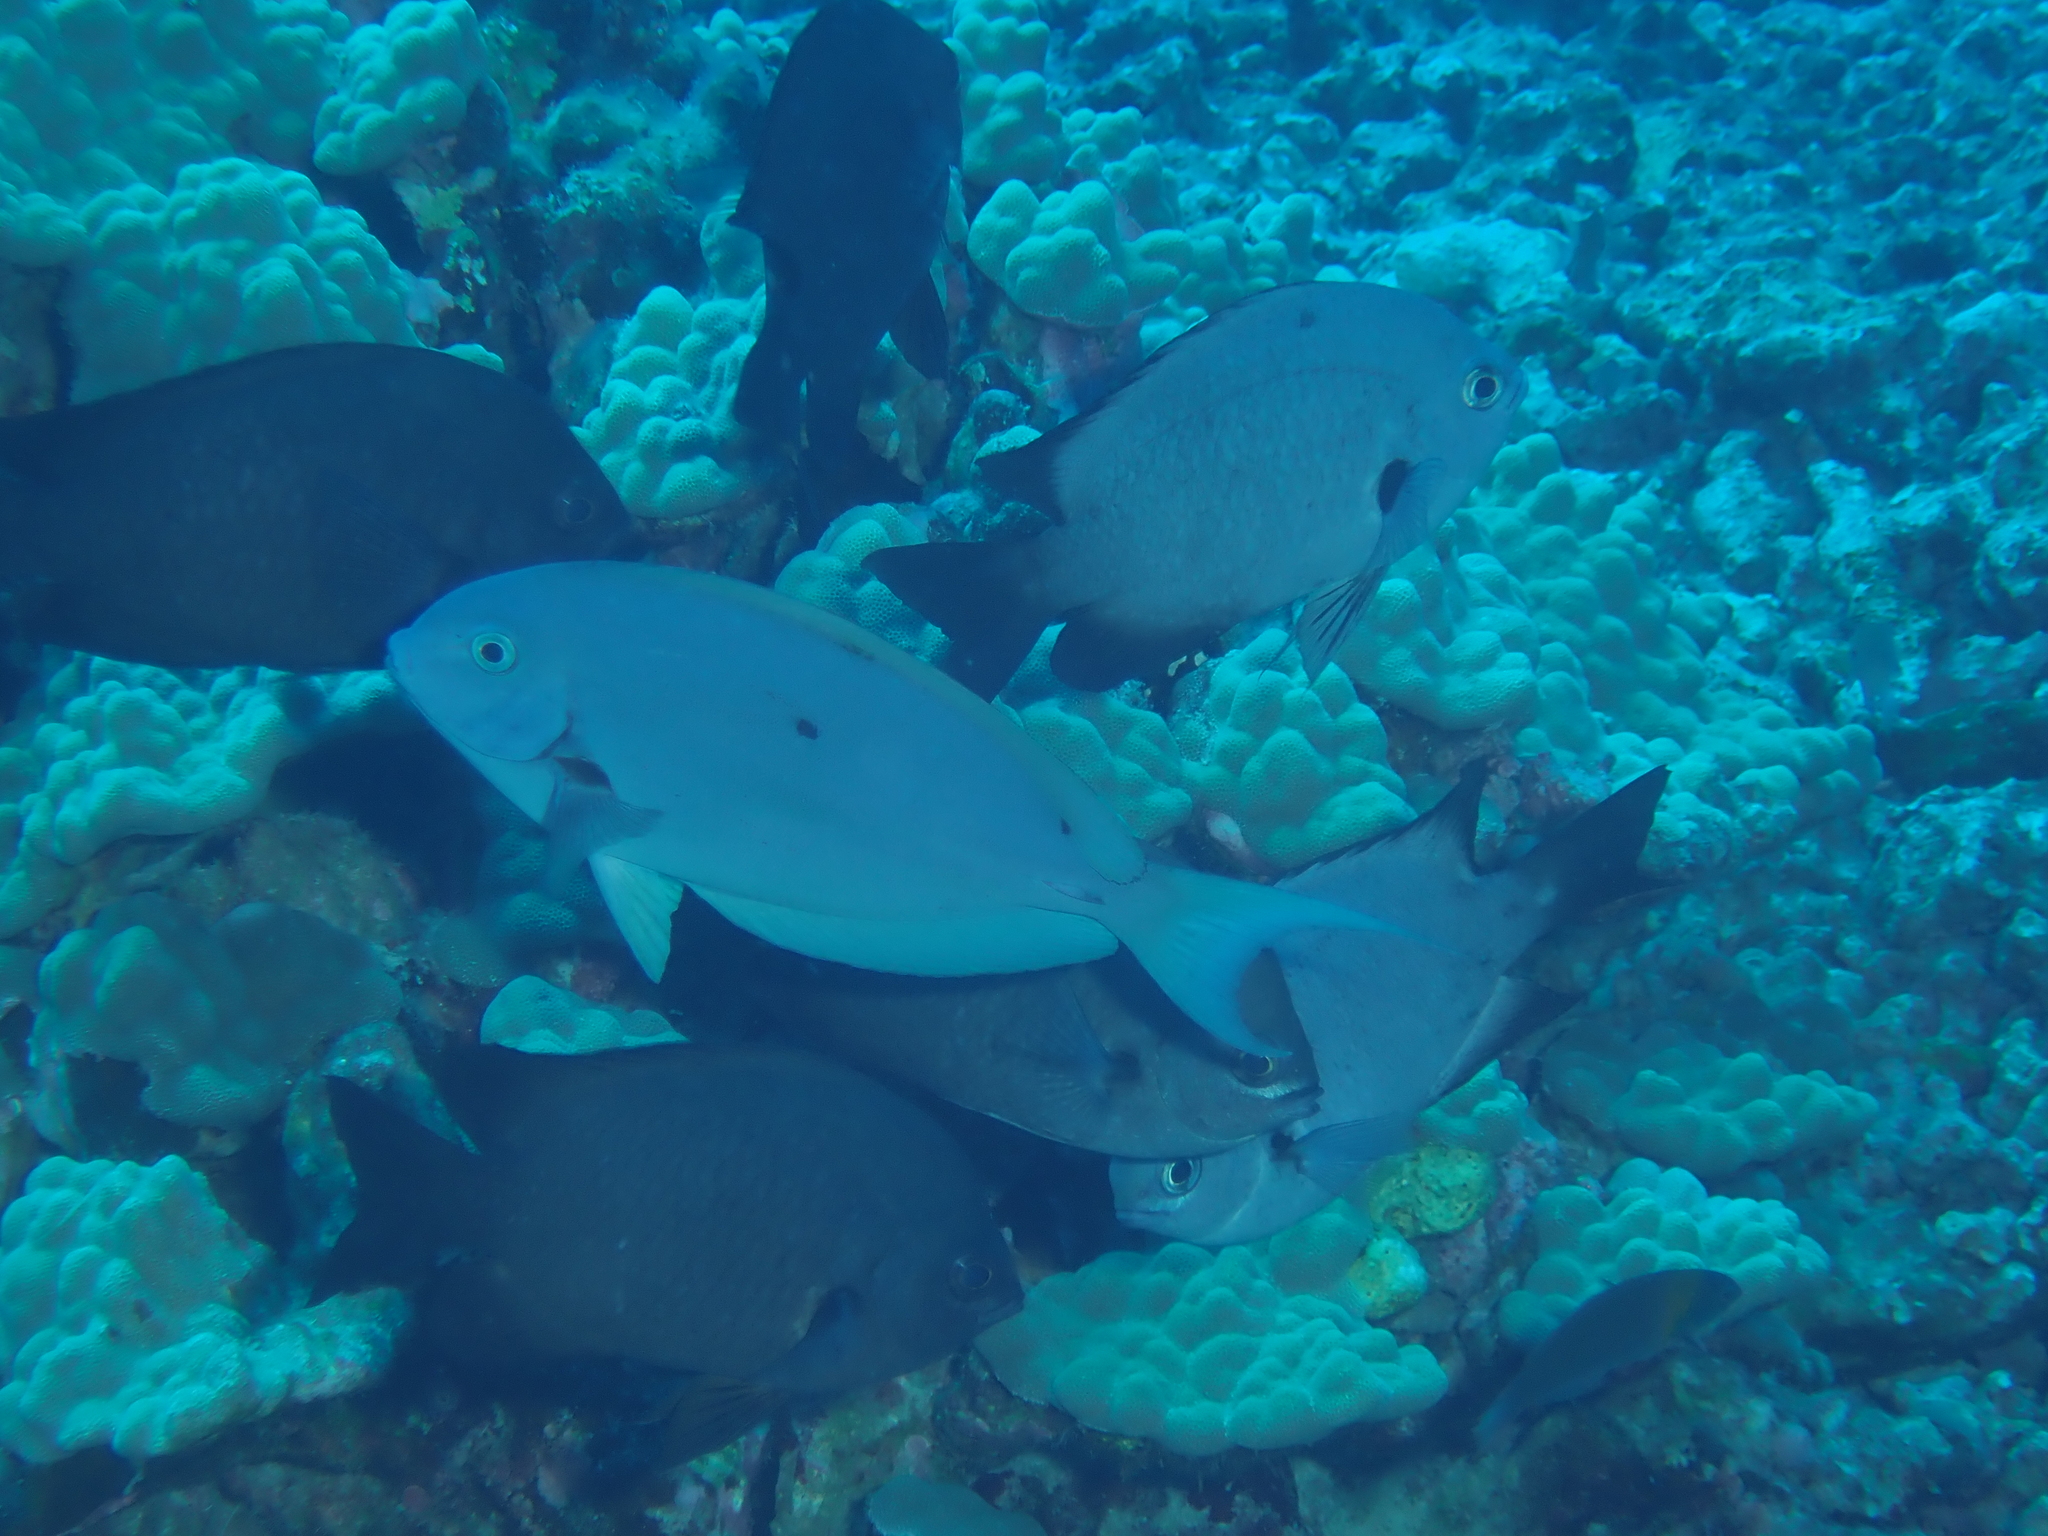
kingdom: Animalia
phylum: Chordata
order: Perciformes
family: Acanthuridae
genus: Acanthurus
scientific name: Acanthurus thompsoni
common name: Chocolate surgeonfish
